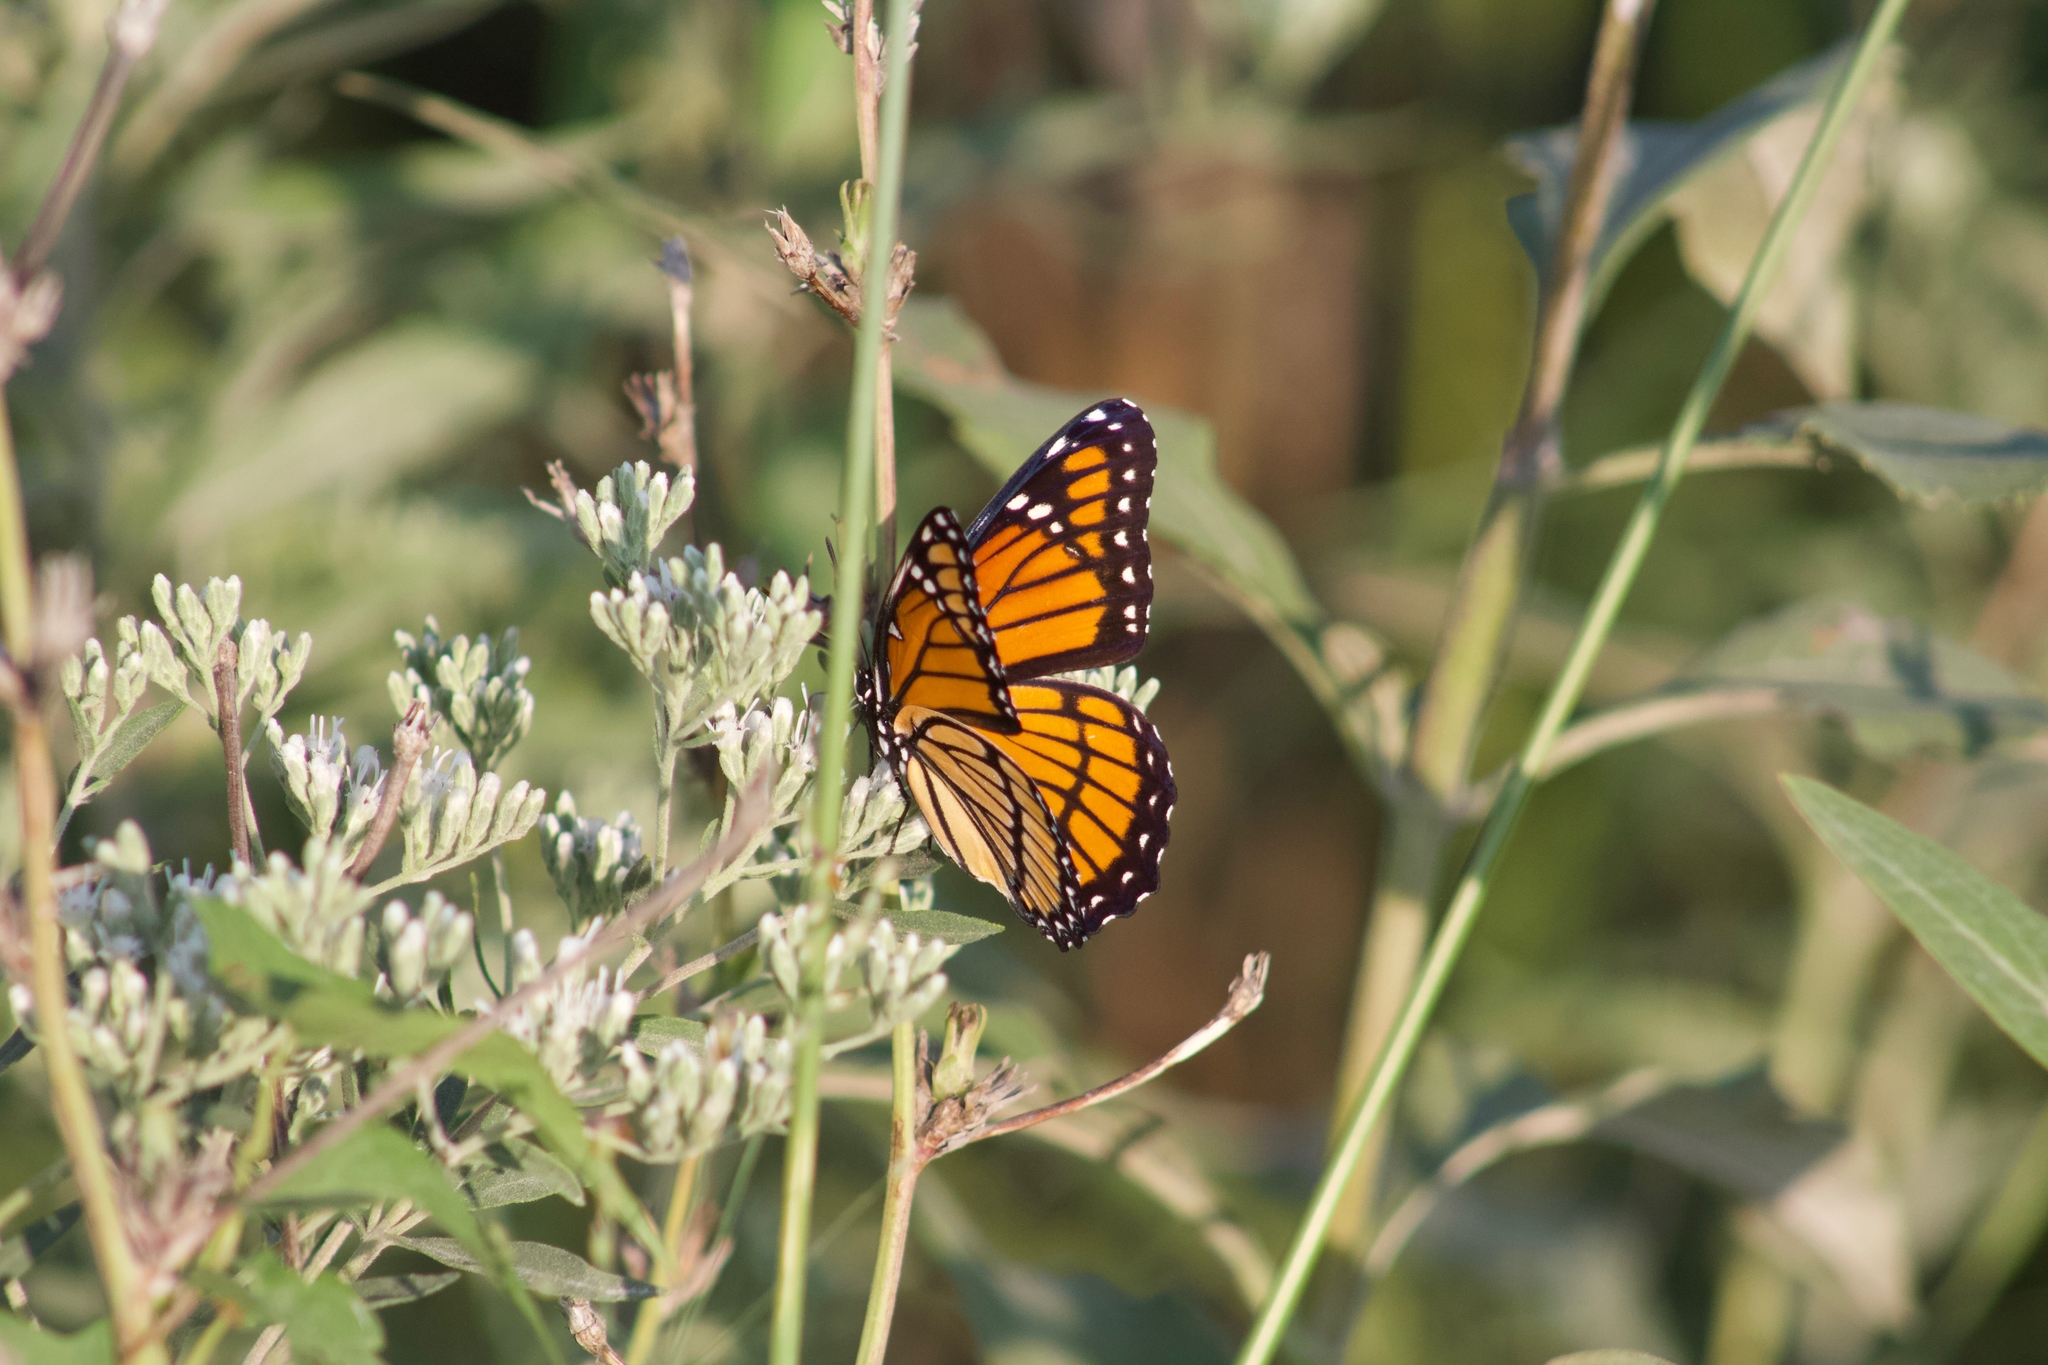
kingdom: Animalia
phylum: Arthropoda
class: Insecta
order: Lepidoptera
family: Nymphalidae
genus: Limenitis
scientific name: Limenitis archippus
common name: Viceroy
